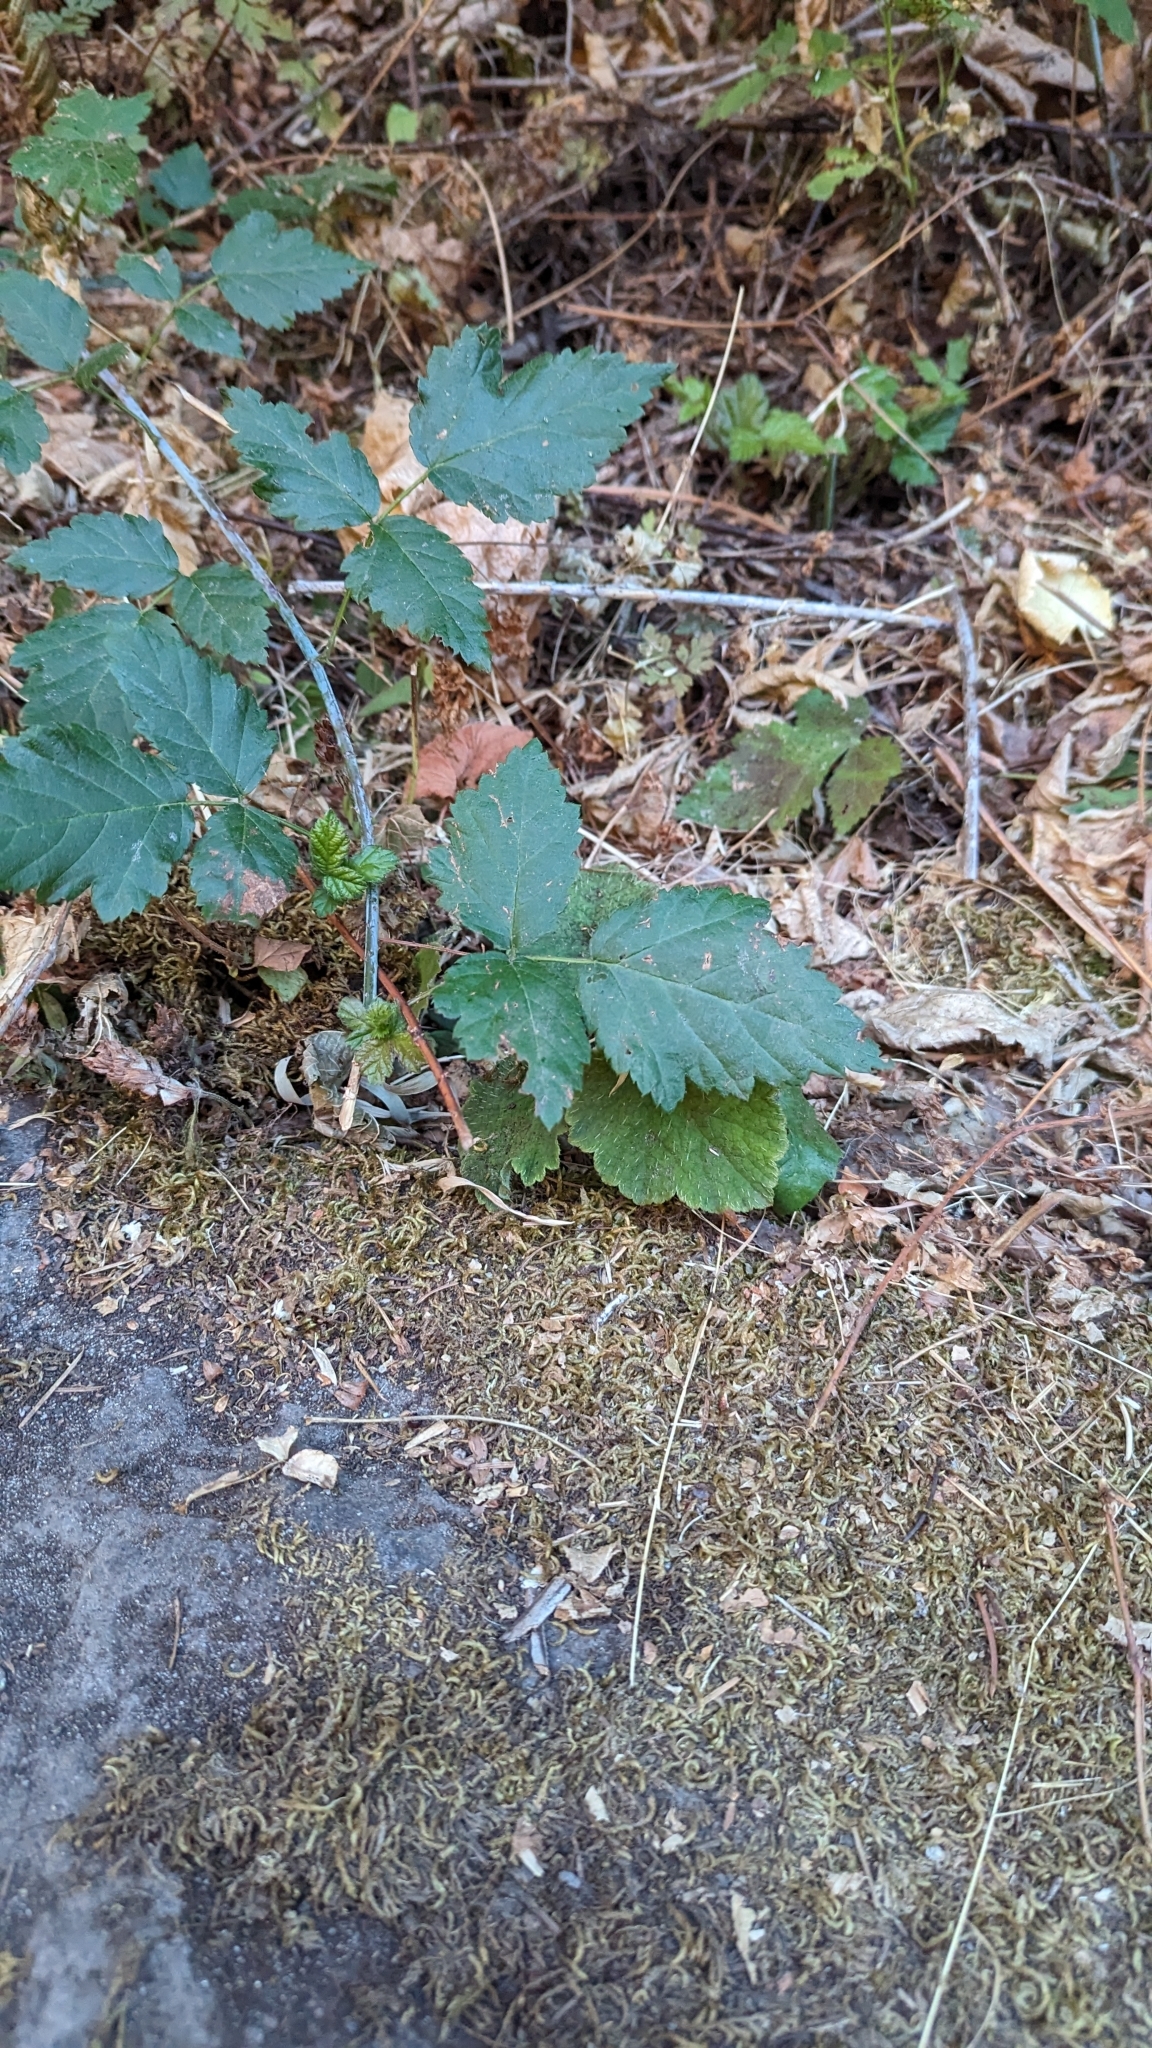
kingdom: Plantae
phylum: Tracheophyta
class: Magnoliopsida
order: Rosales
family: Rosaceae
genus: Rubus
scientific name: Rubus ursinus
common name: Pacific blackberry
